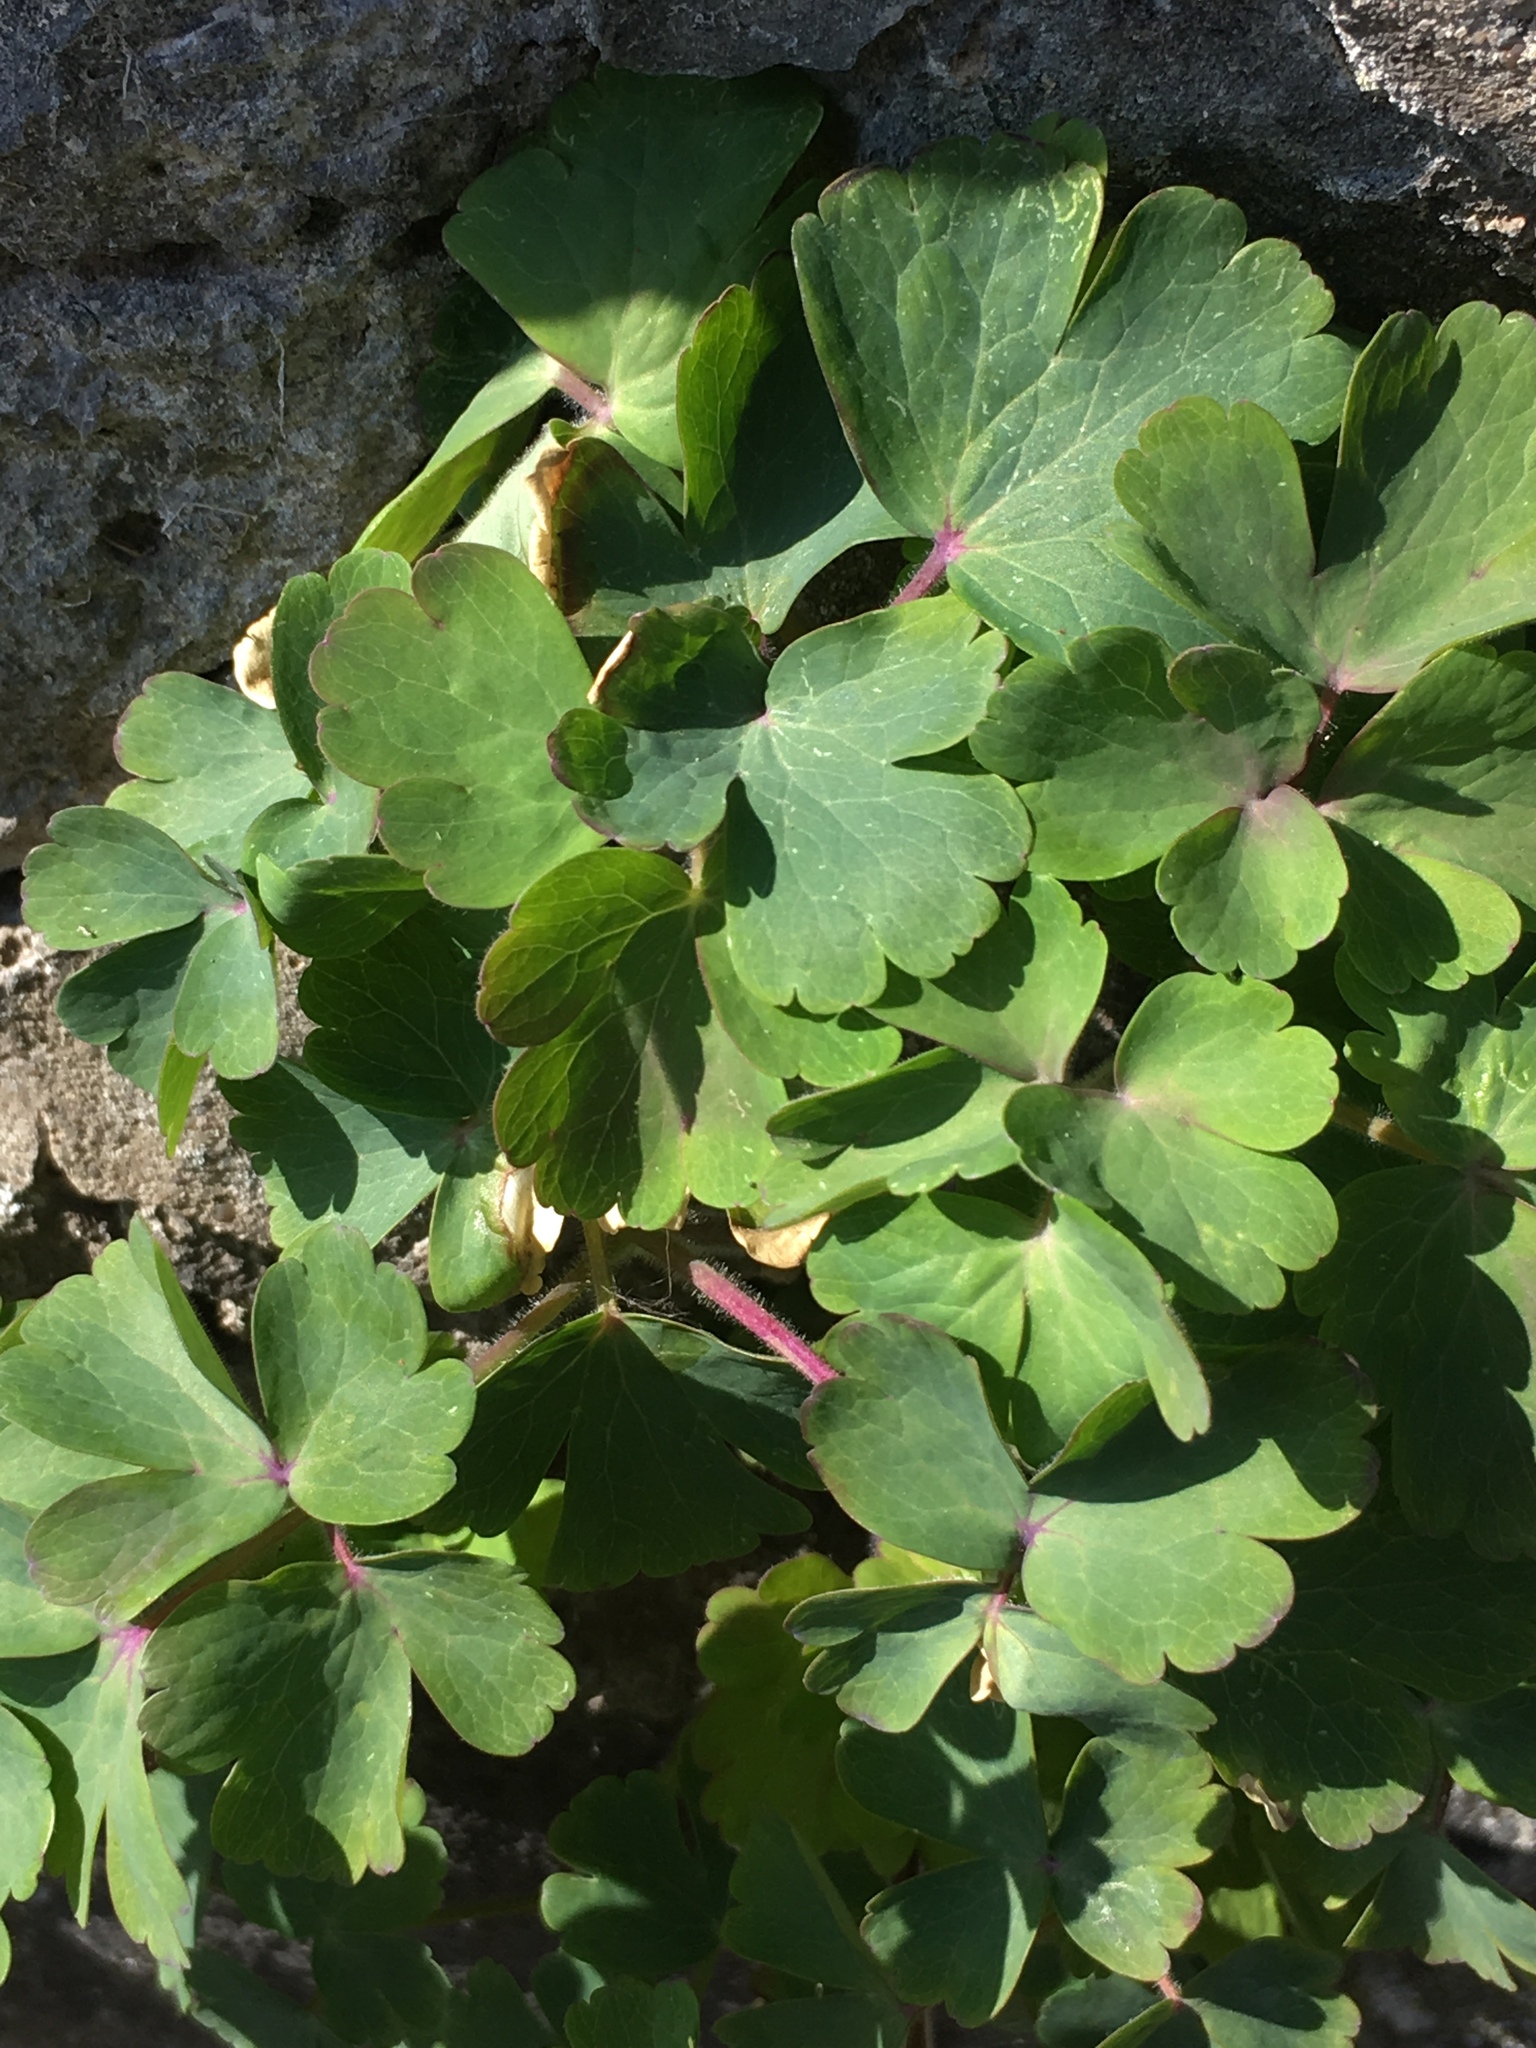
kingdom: Plantae
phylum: Tracheophyta
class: Magnoliopsida
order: Ranunculales
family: Ranunculaceae
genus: Aquilegia
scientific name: Aquilegia vulgaris
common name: Columbine
